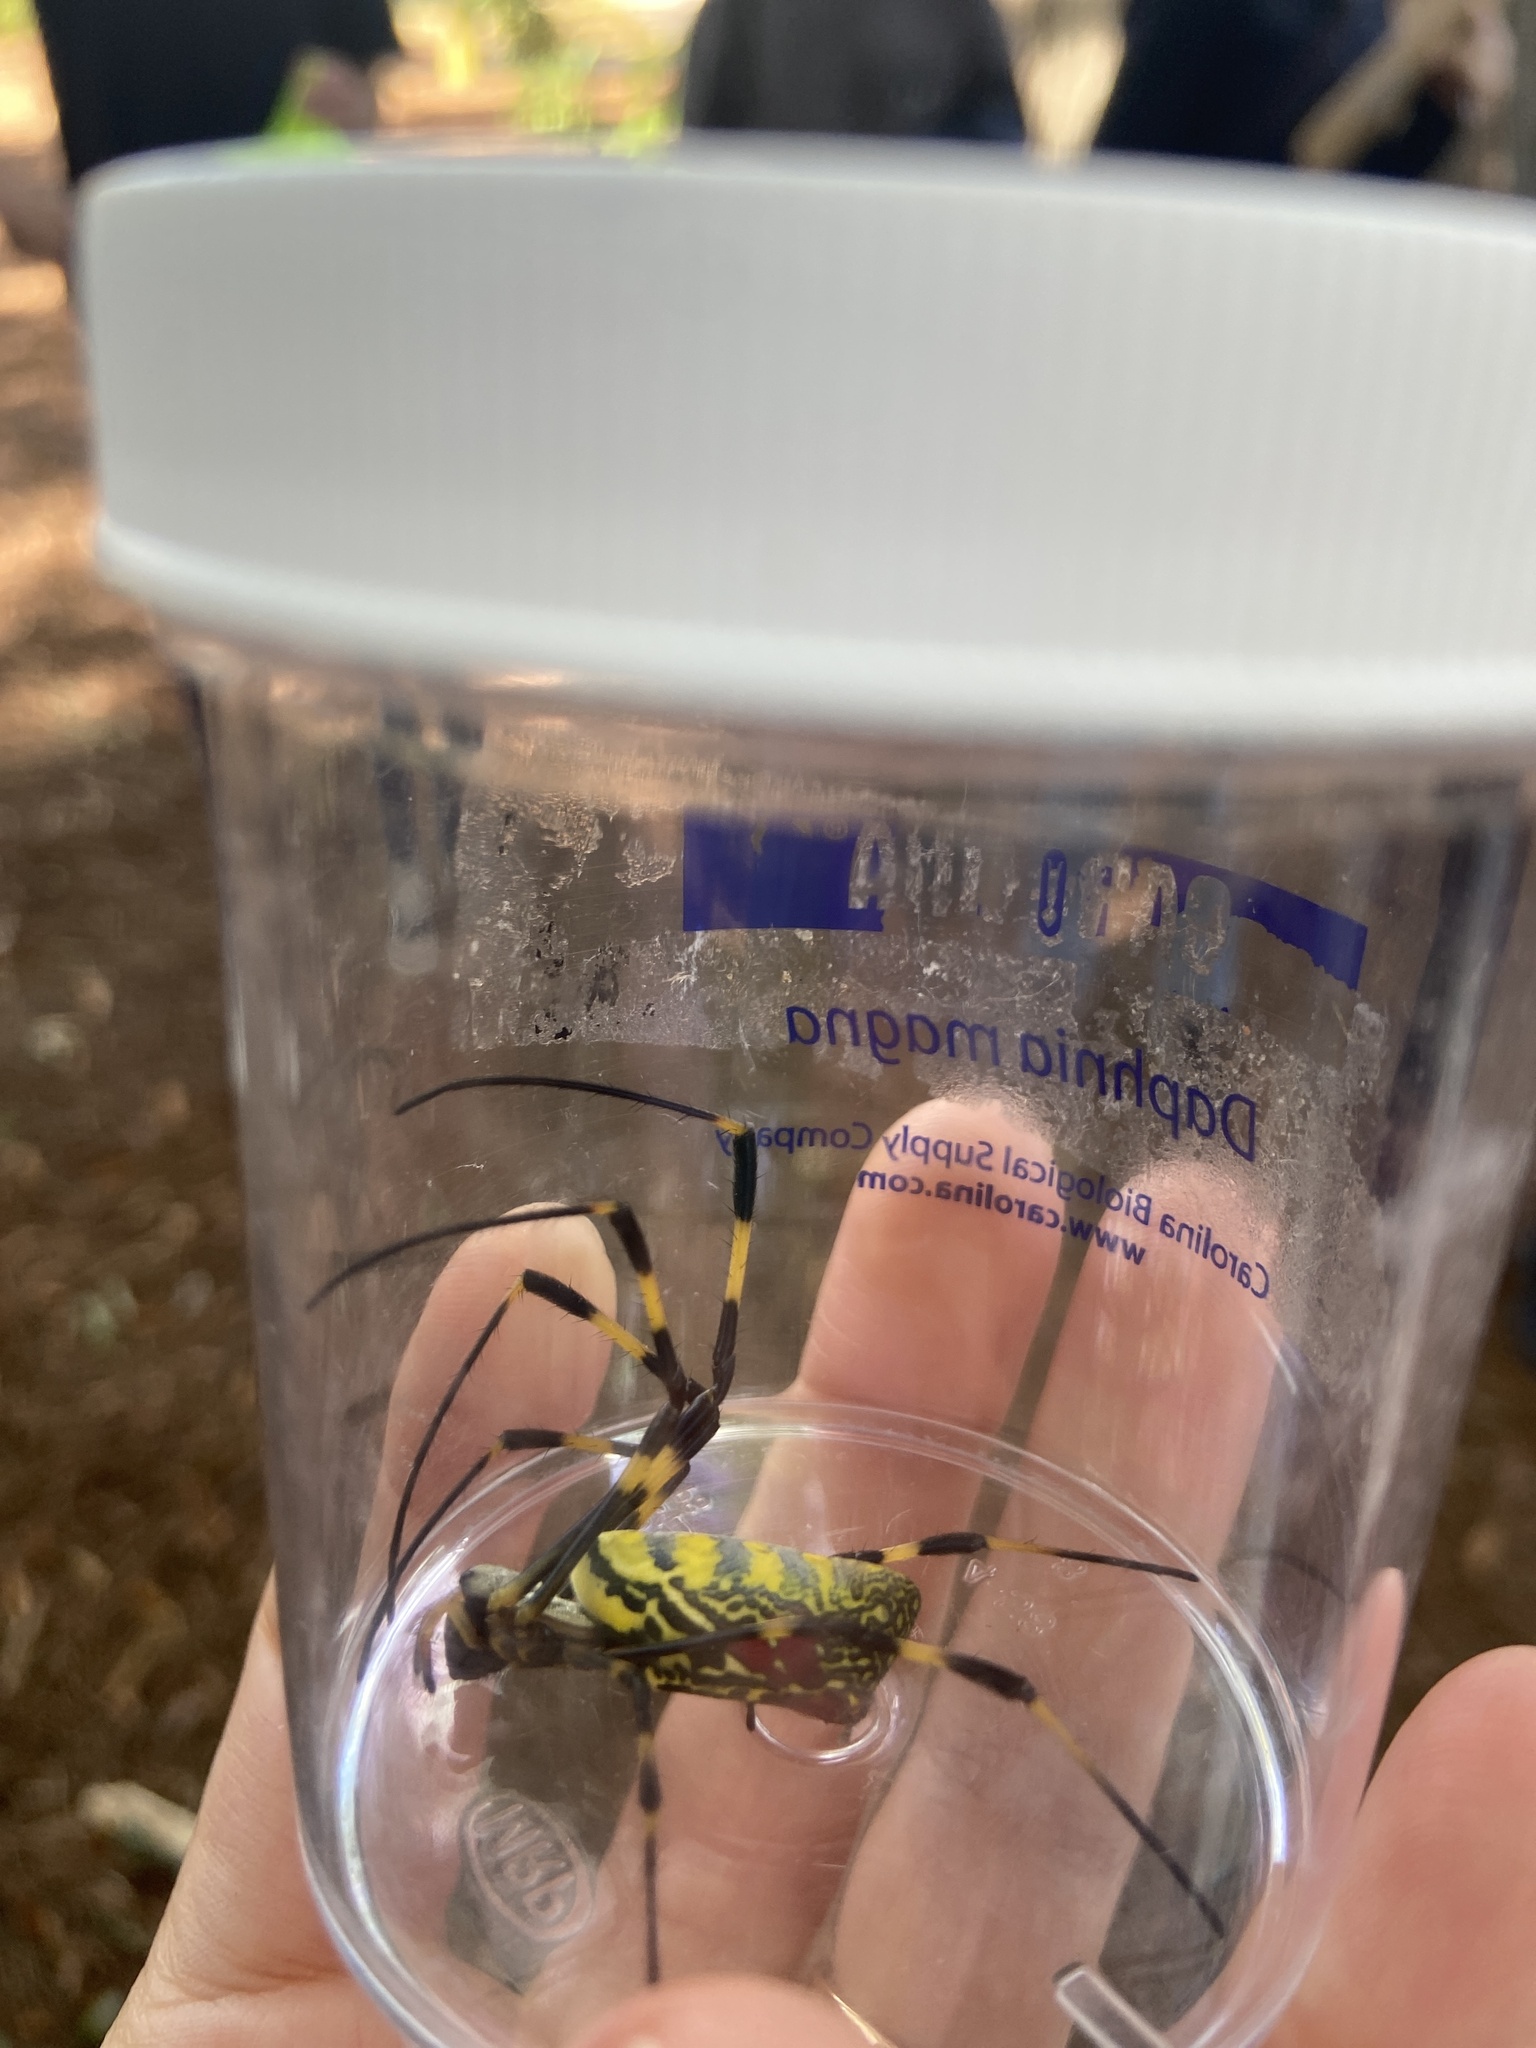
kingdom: Animalia
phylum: Arthropoda
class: Arachnida
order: Araneae
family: Araneidae
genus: Trichonephila
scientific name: Trichonephila clavata
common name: Jorō spider
